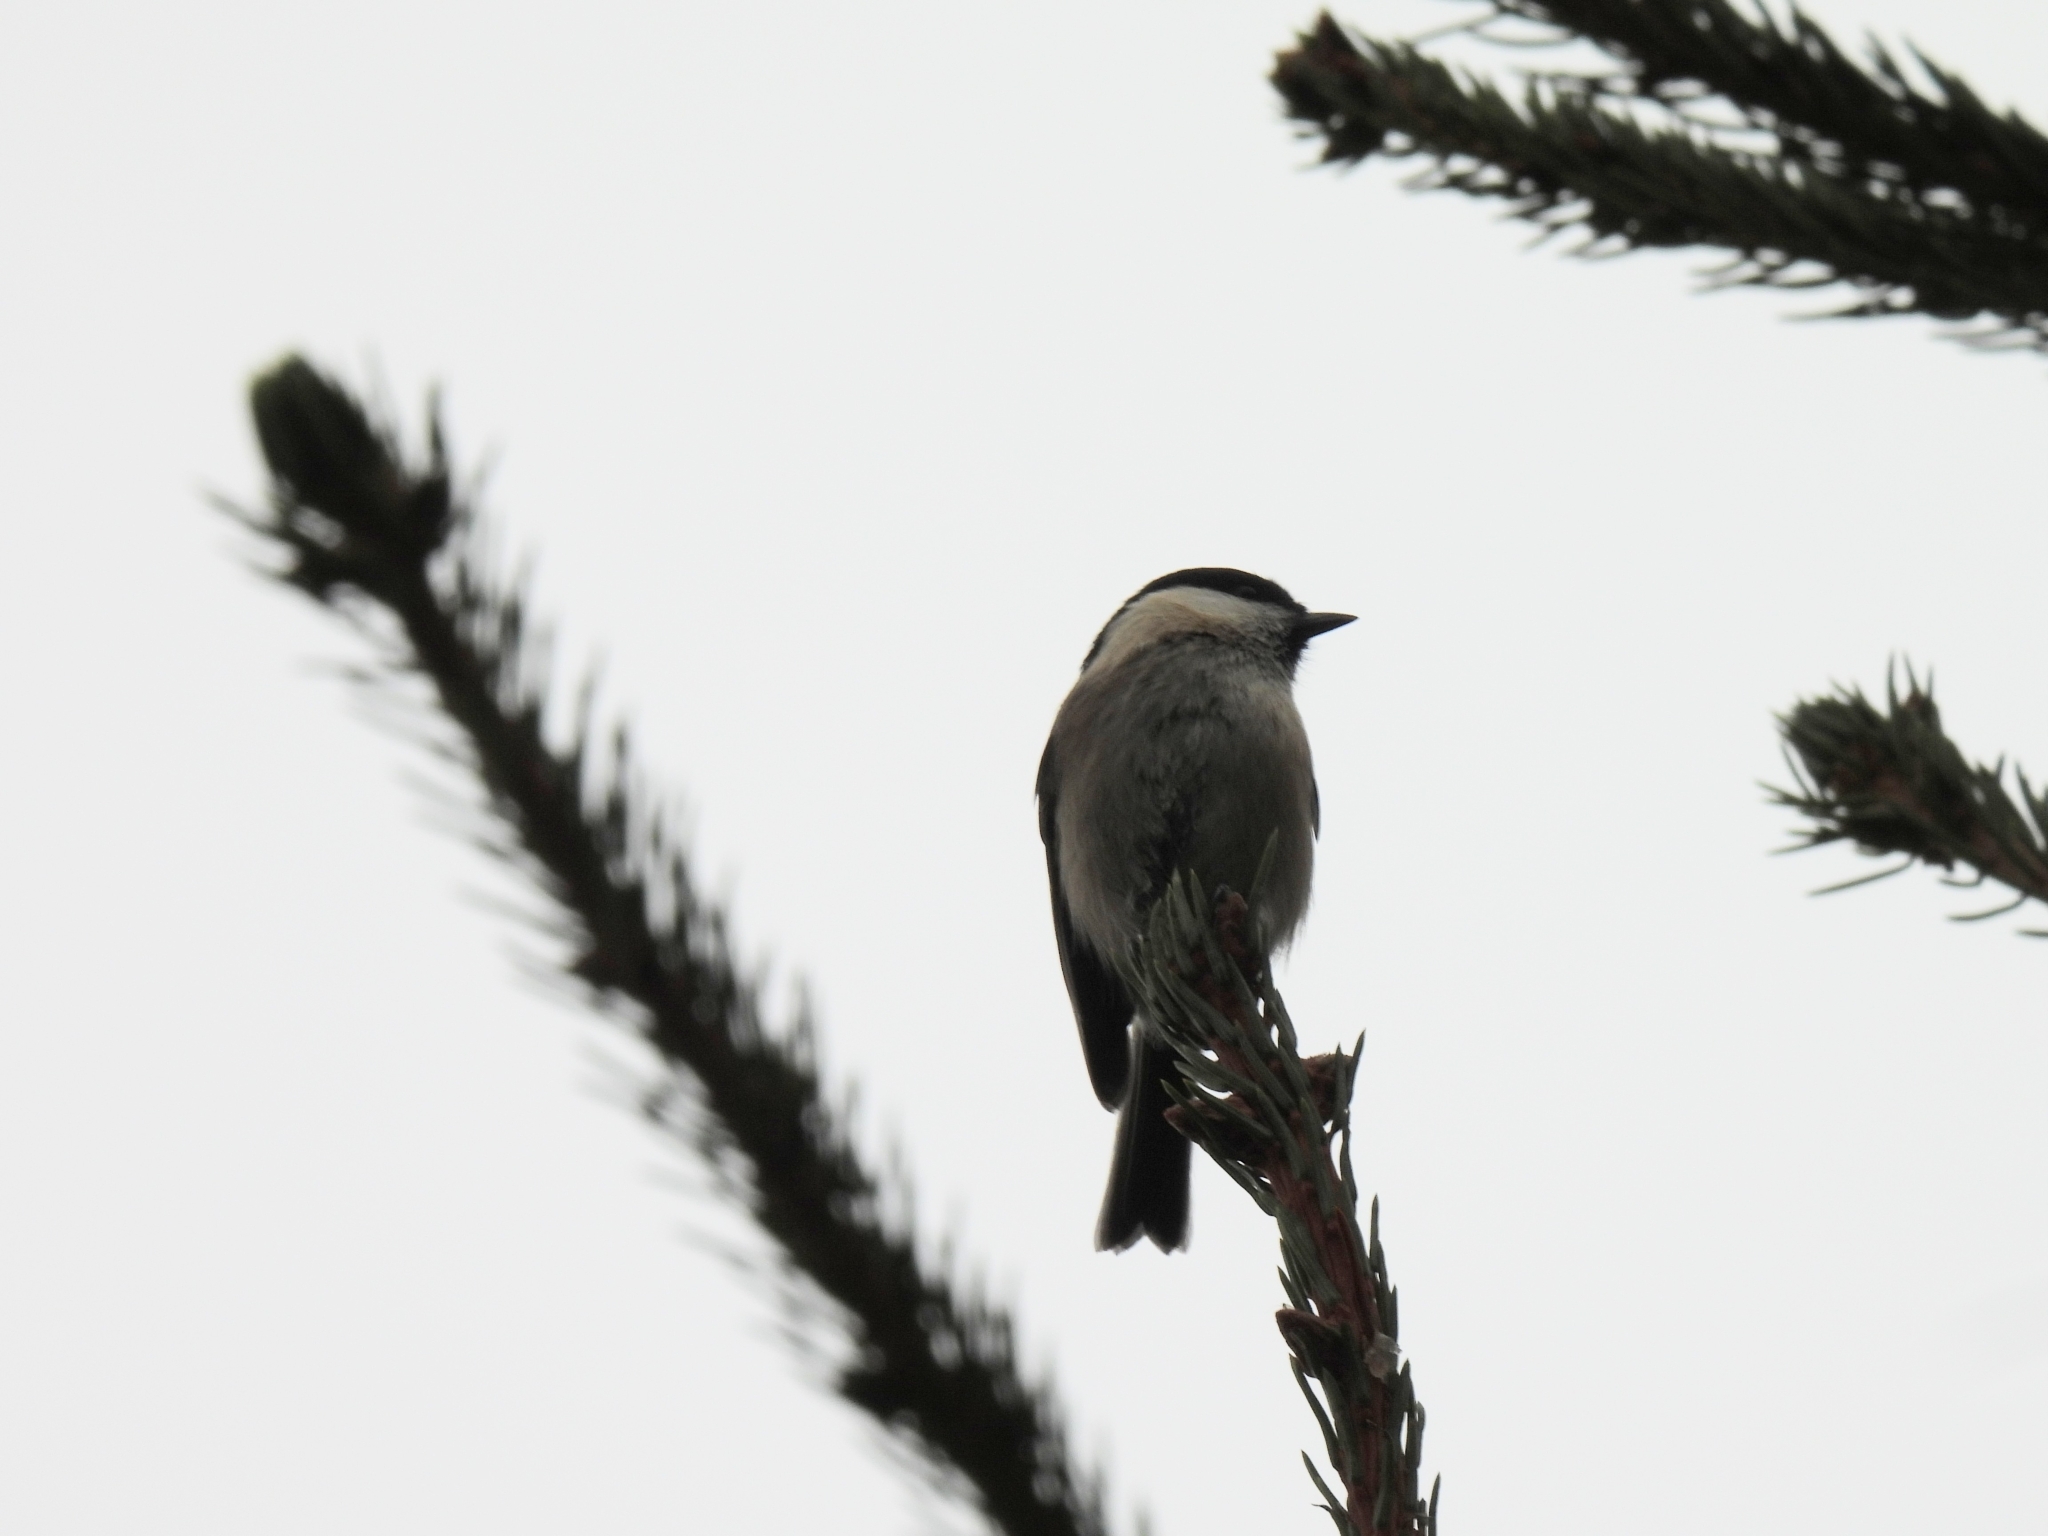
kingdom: Animalia
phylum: Chordata
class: Aves
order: Passeriformes
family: Paridae
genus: Poecile
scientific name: Poecile palustris
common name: Marsh tit
